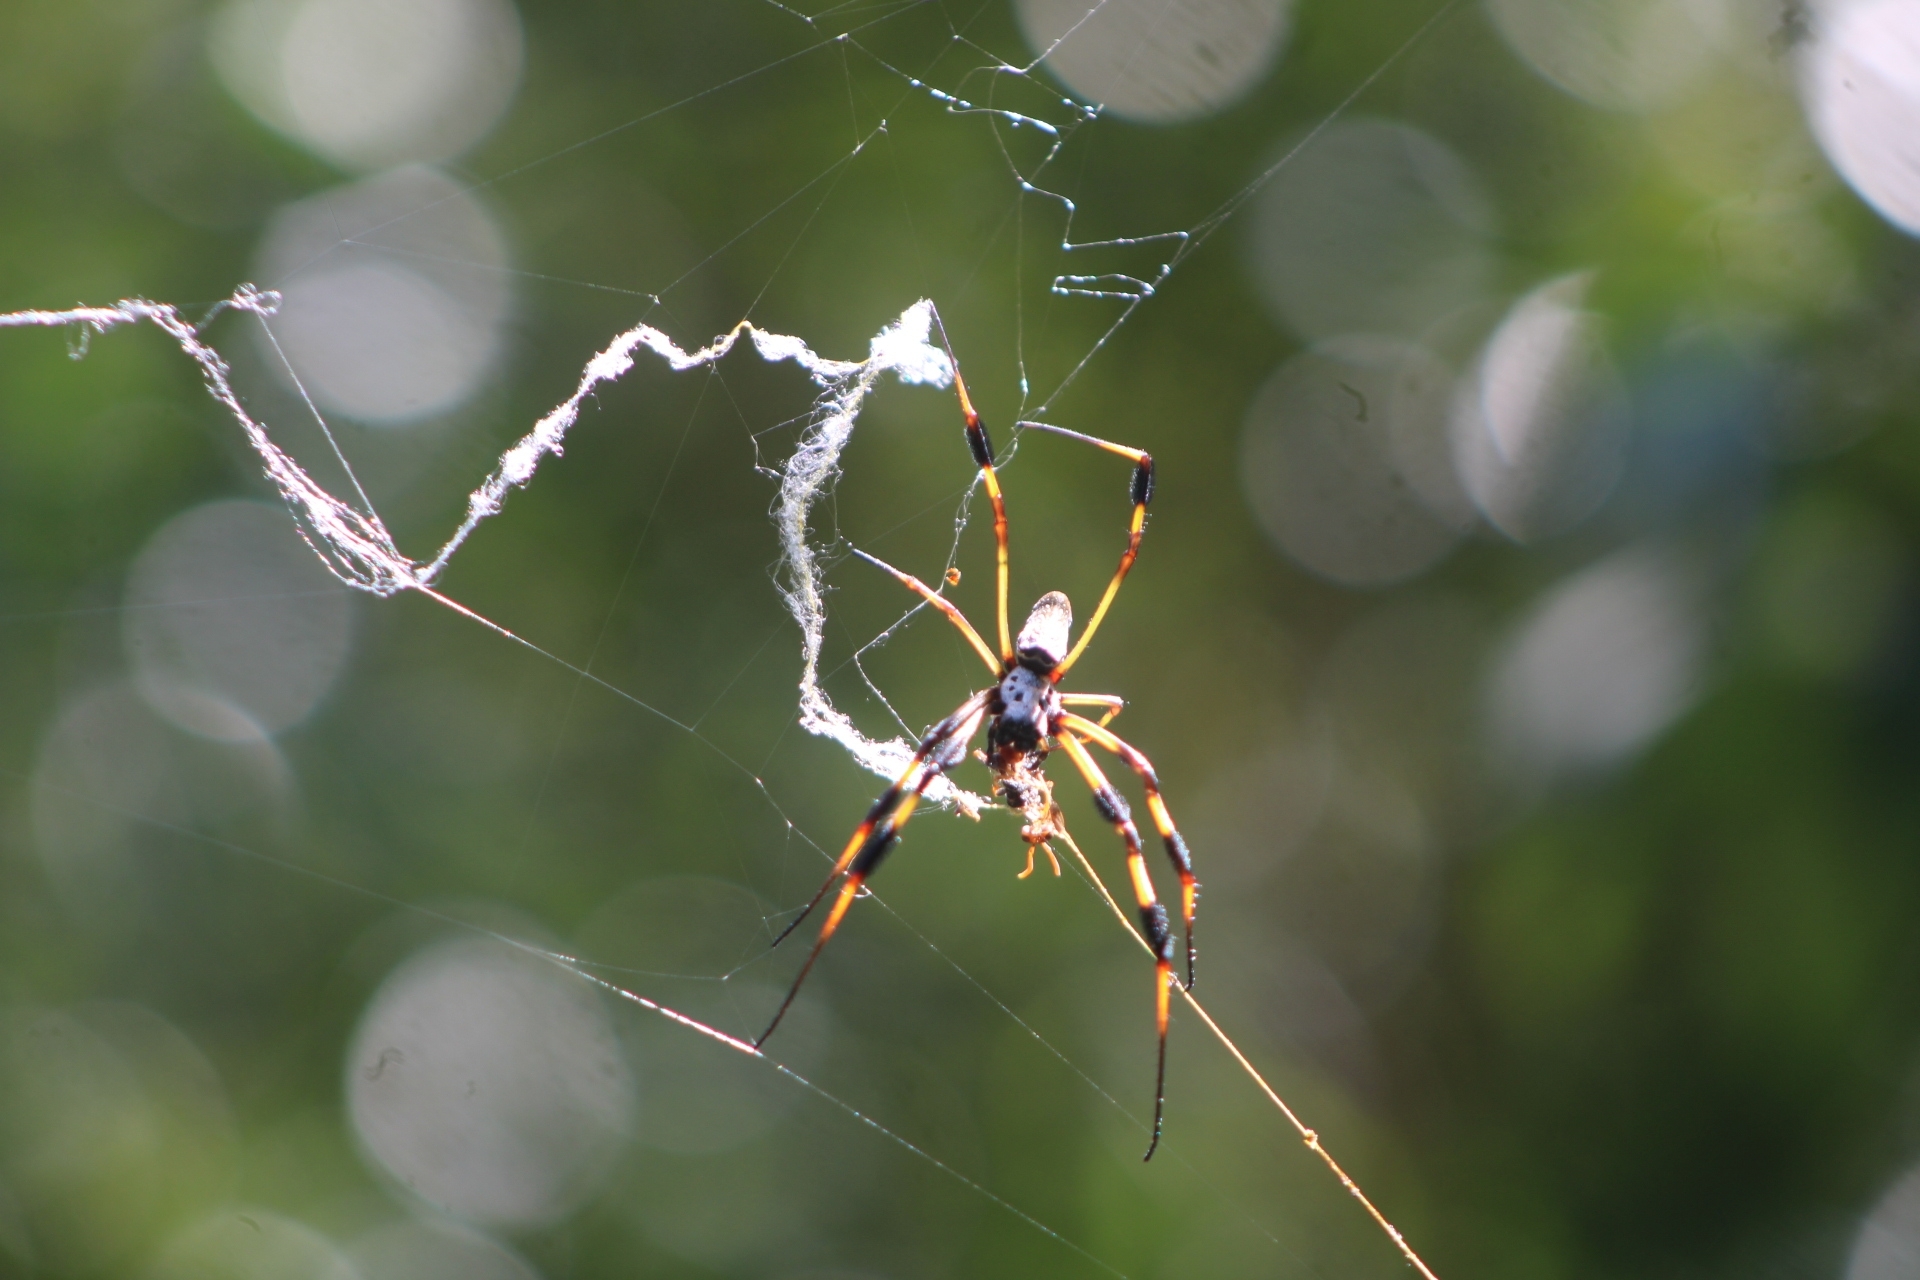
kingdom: Animalia
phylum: Arthropoda
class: Arachnida
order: Araneae
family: Araneidae
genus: Trichonephila
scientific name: Trichonephila clavipes
